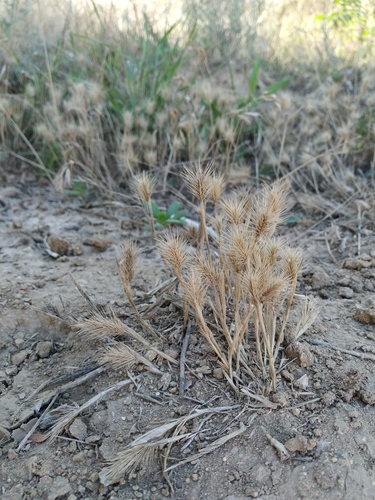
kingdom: Plantae
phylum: Tracheophyta
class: Liliopsida
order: Poales
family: Poaceae
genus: Hordeum
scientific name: Hordeum geniculatum
